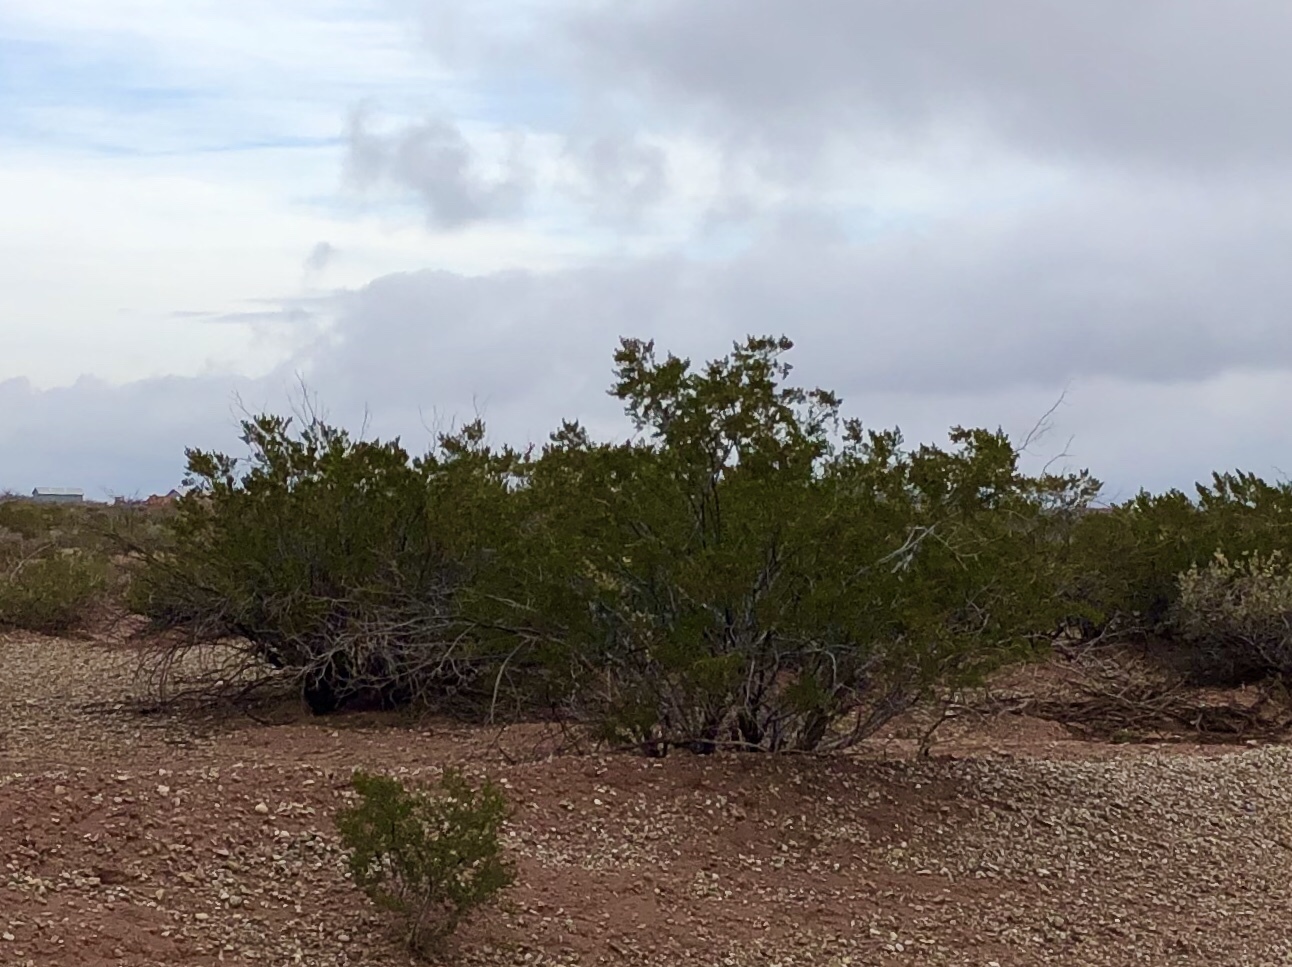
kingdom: Plantae
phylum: Tracheophyta
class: Magnoliopsida
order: Zygophyllales
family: Zygophyllaceae
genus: Larrea
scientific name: Larrea tridentata
